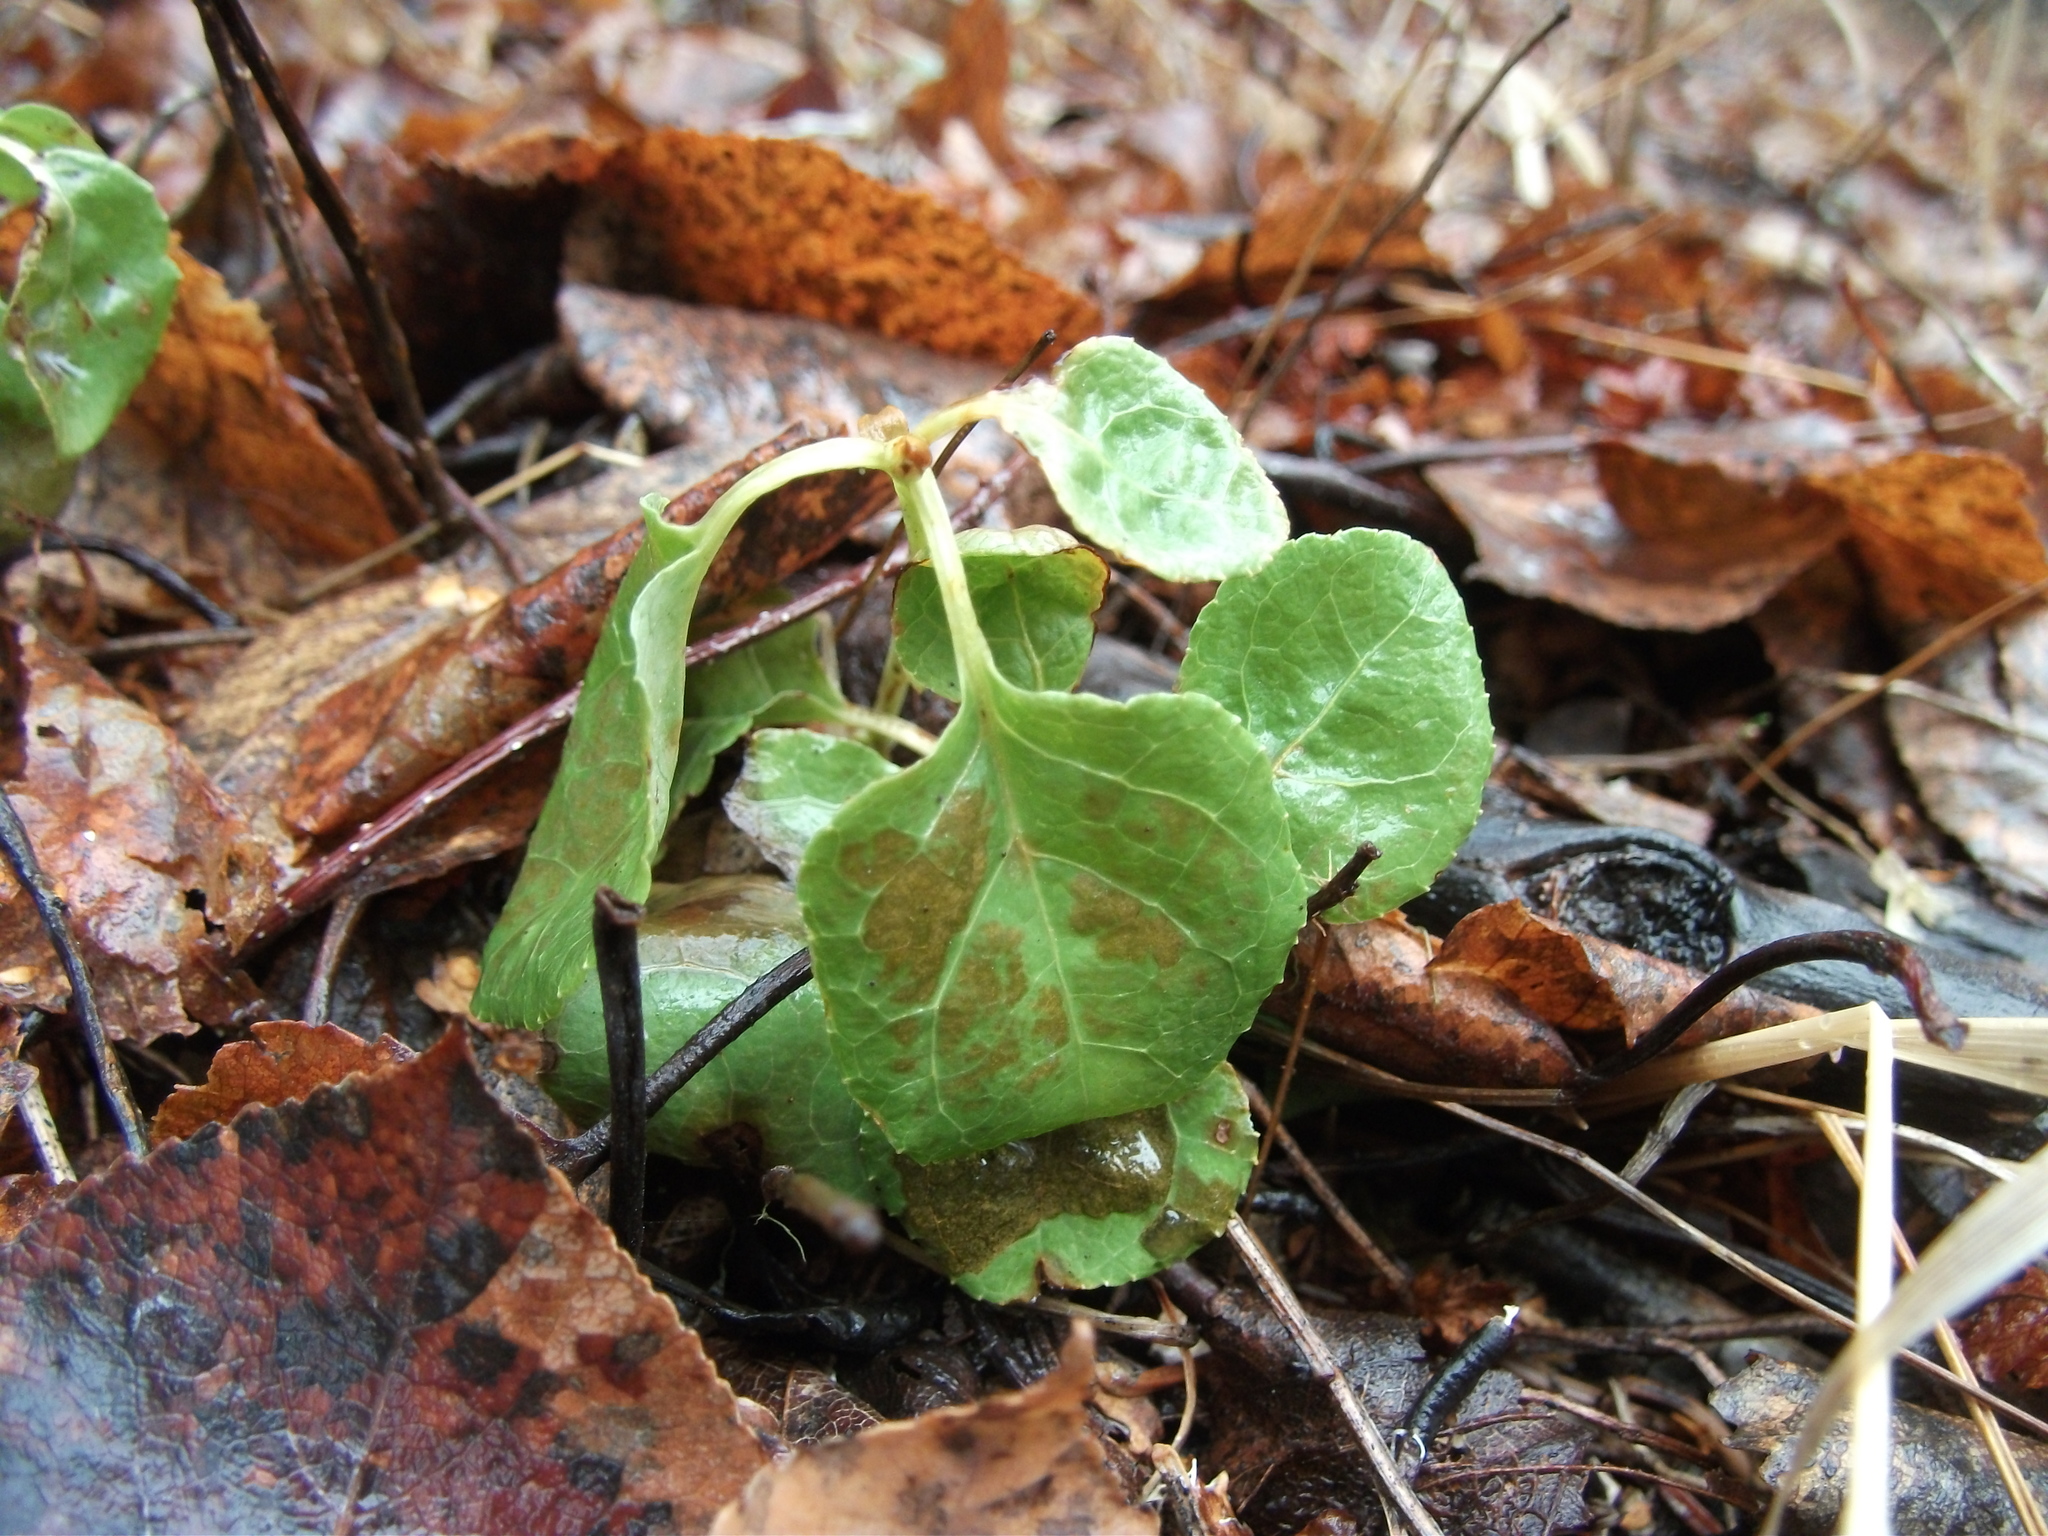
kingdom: Plantae
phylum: Tracheophyta
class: Magnoliopsida
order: Ericales
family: Ericaceae
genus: Orthilia
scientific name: Orthilia secunda
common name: One-sided orthilia
